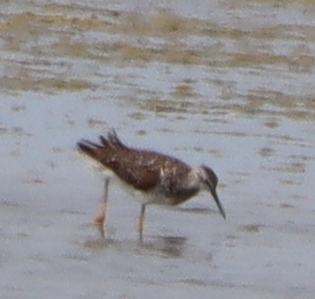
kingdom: Animalia
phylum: Chordata
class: Aves
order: Charadriiformes
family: Scolopacidae
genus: Tringa
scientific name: Tringa flavipes
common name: Lesser yellowlegs
